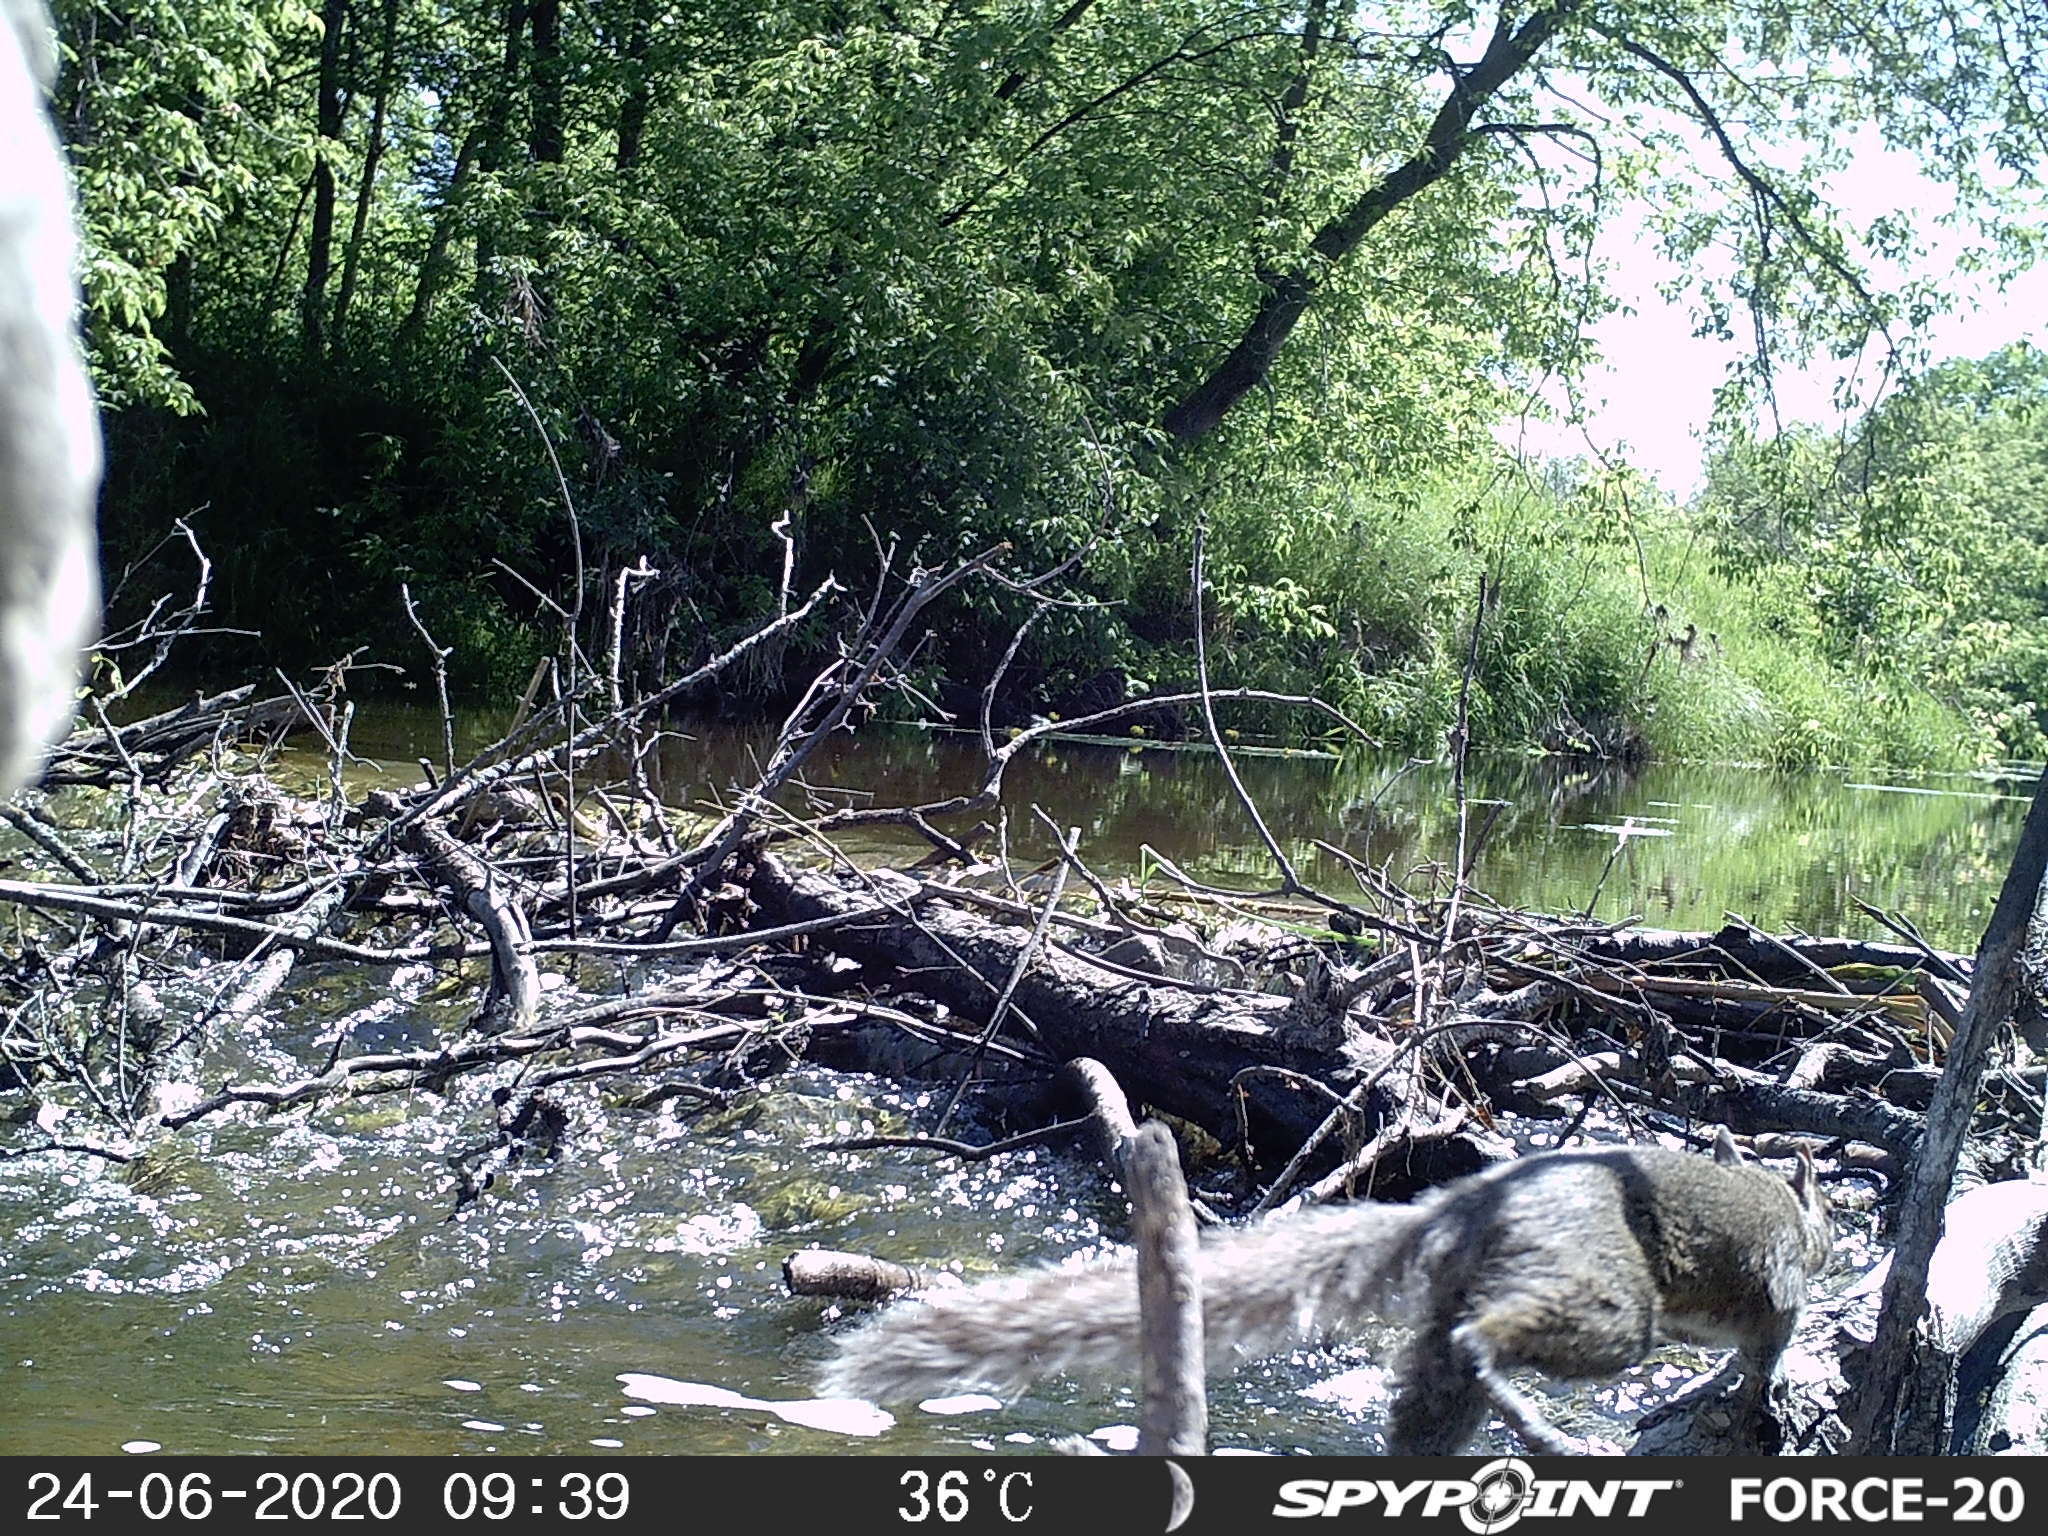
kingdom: Animalia
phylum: Chordata
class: Mammalia
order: Rodentia
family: Sciuridae
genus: Sciurus
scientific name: Sciurus carolinensis
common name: Eastern gray squirrel
